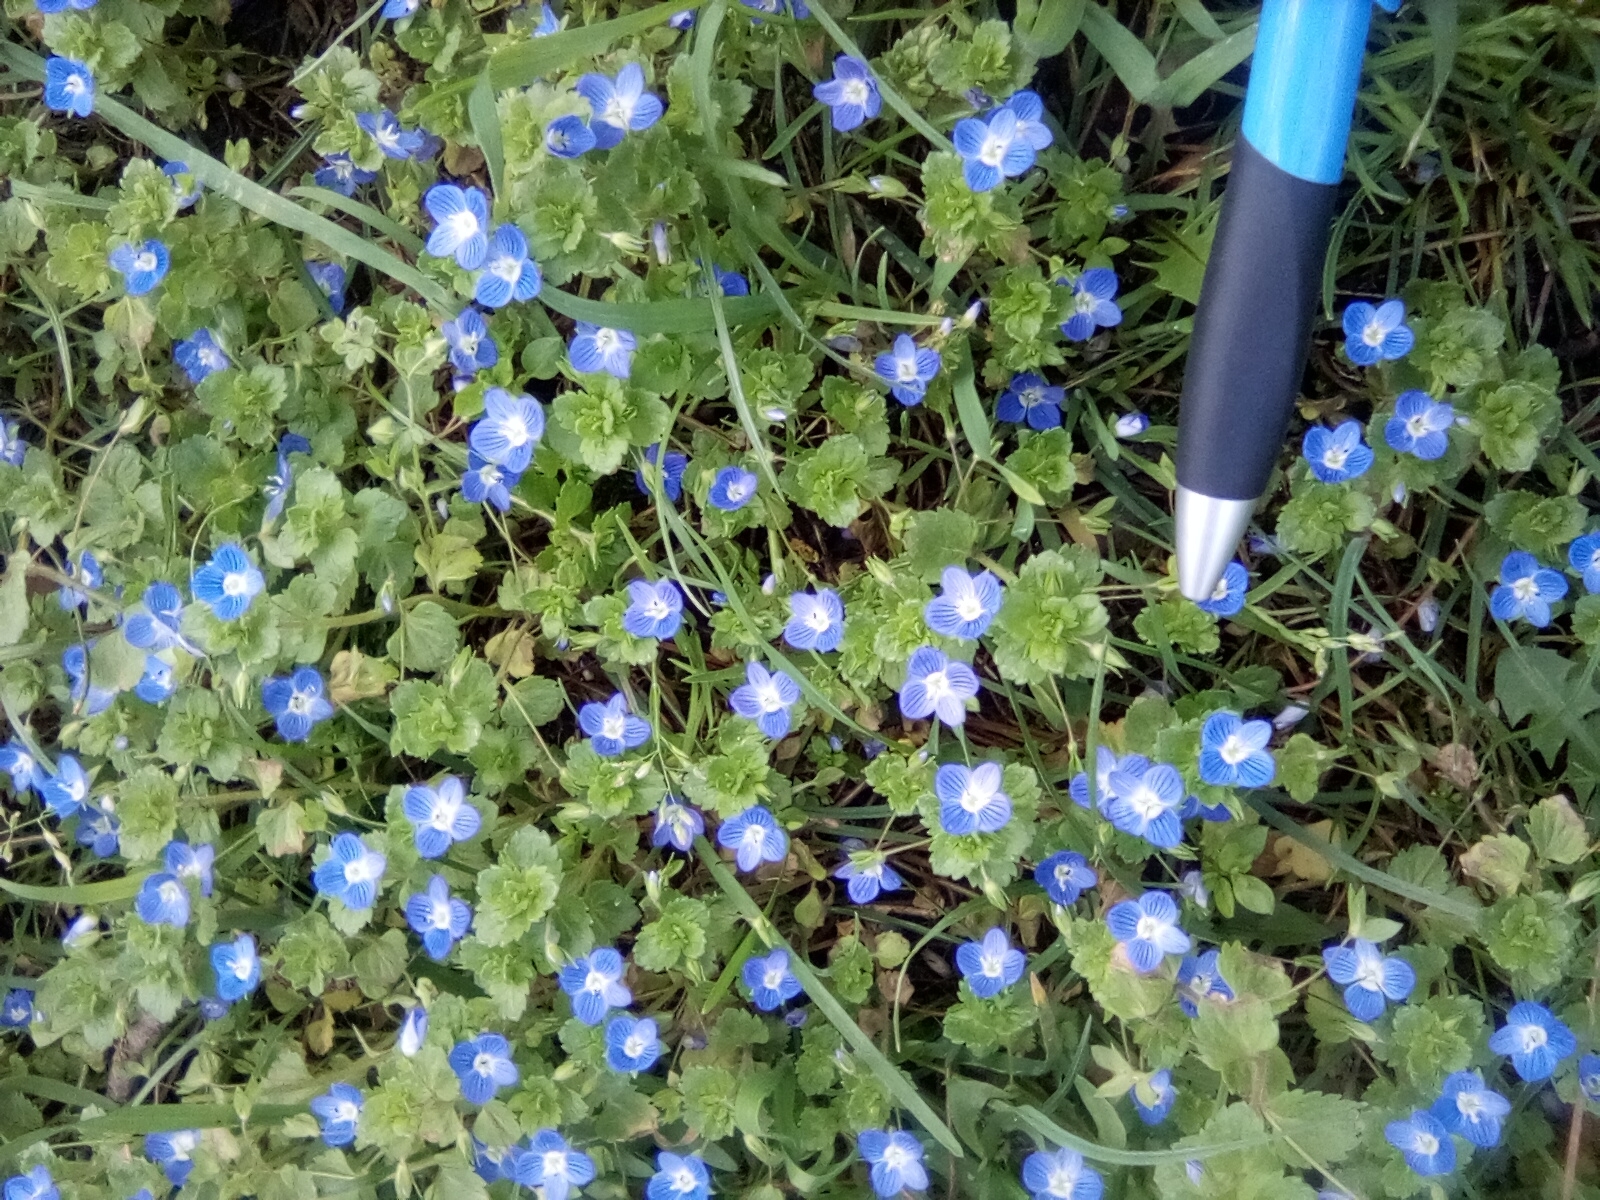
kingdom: Plantae
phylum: Tracheophyta
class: Magnoliopsida
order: Lamiales
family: Plantaginaceae
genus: Veronica
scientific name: Veronica persica
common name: Common field-speedwell
